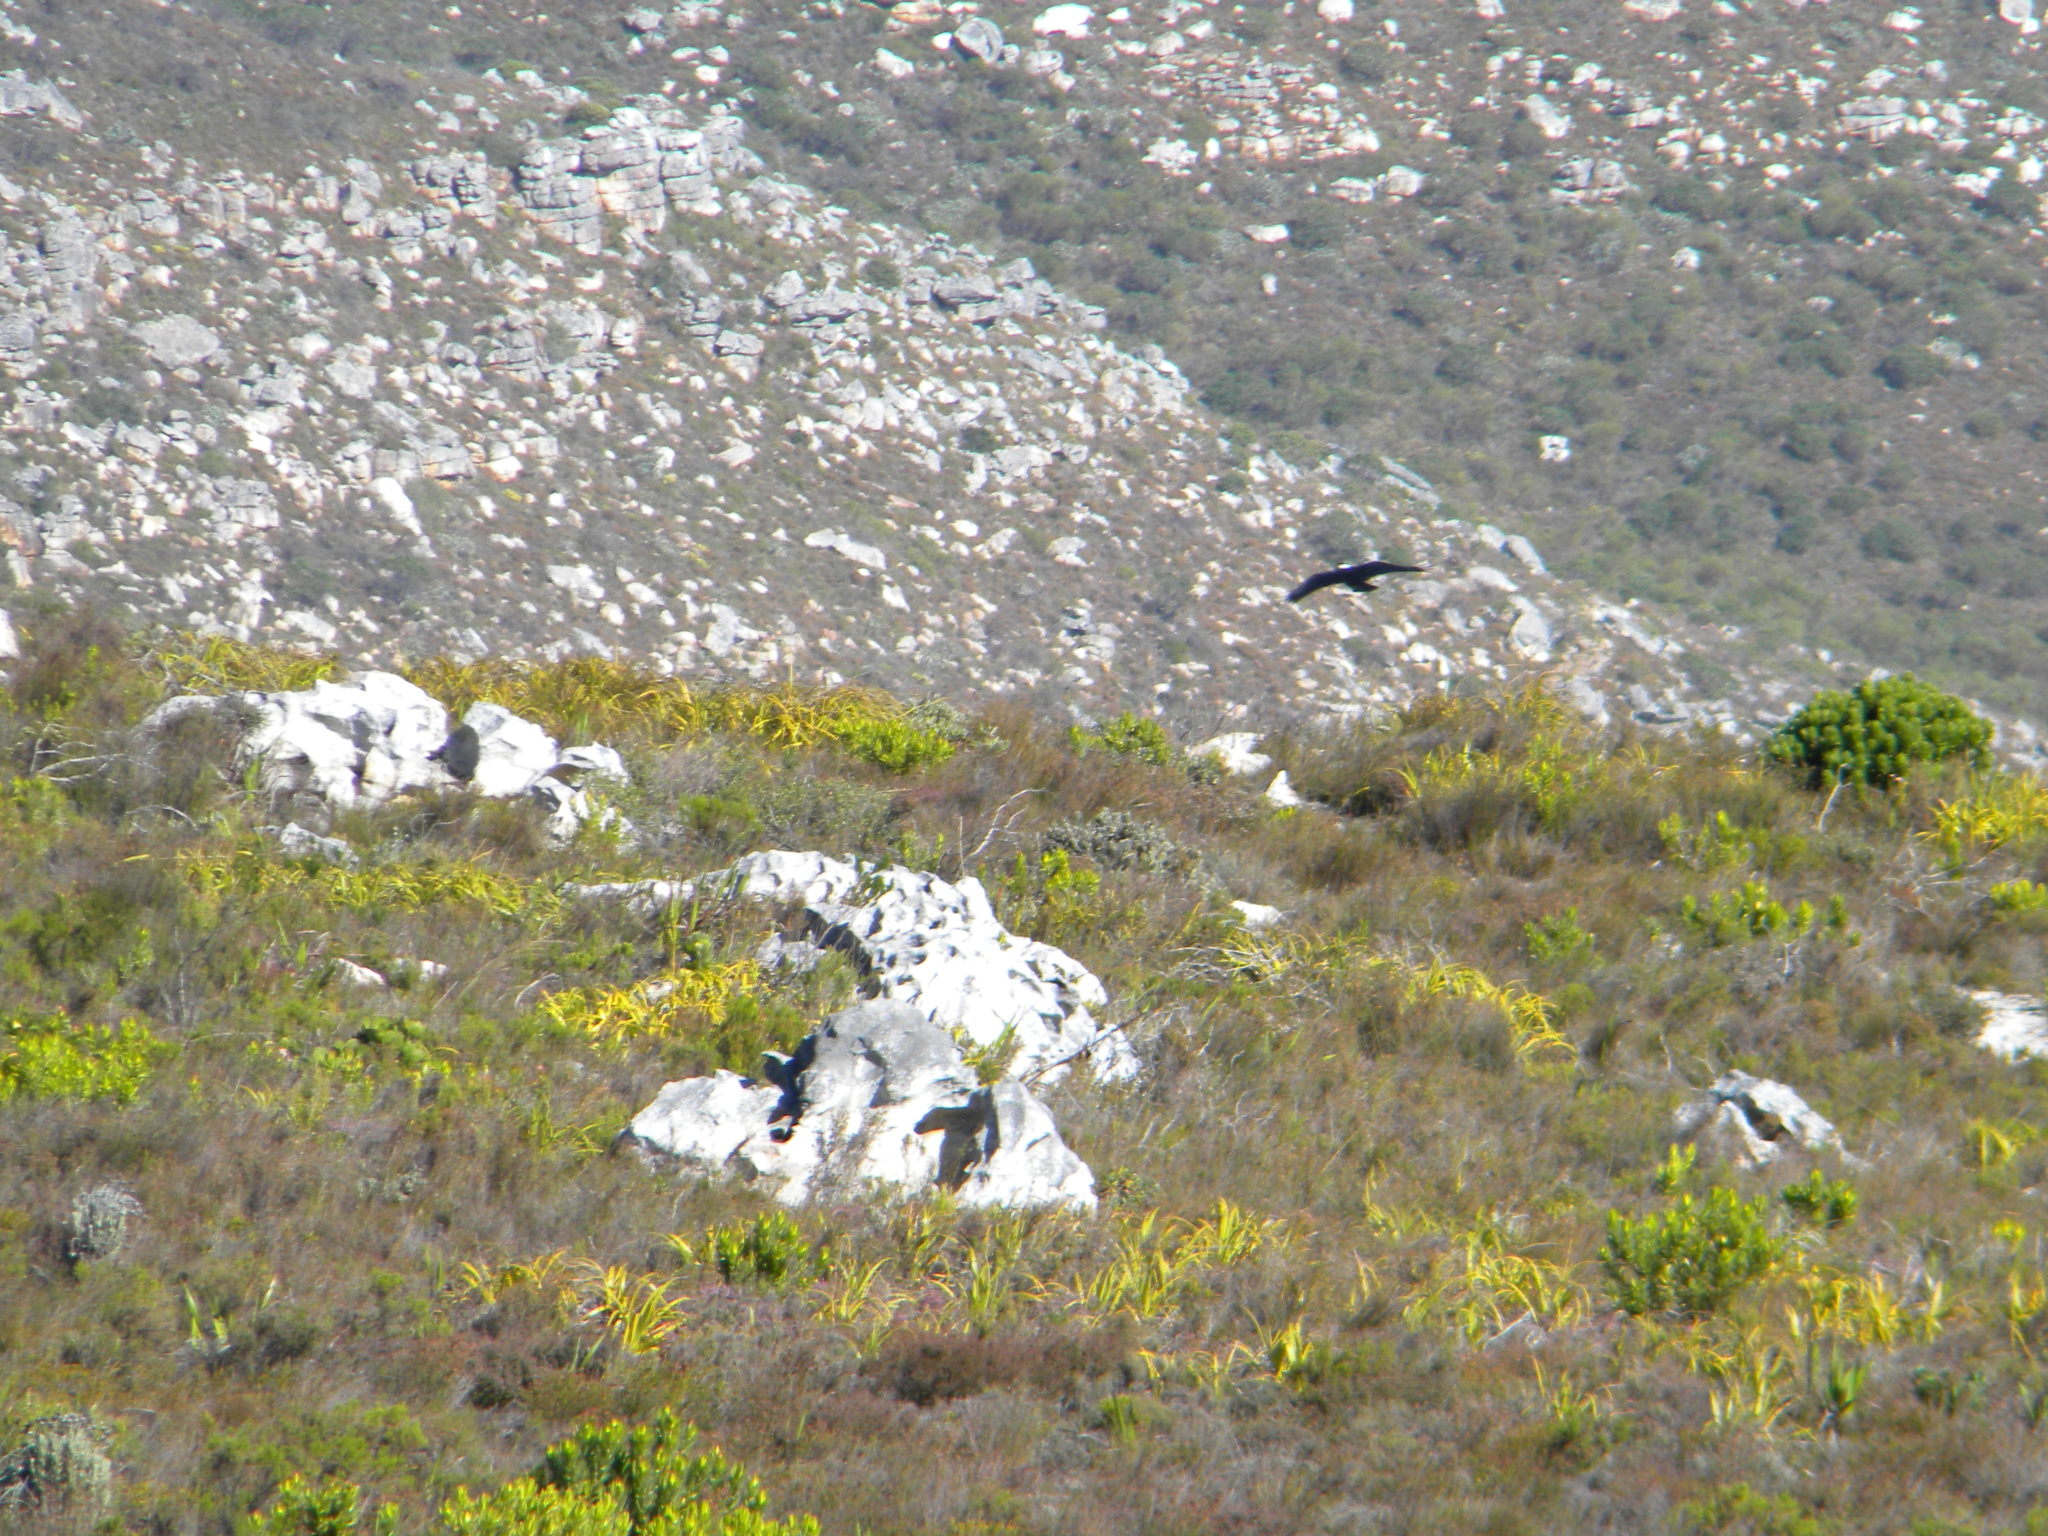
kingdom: Animalia
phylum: Chordata
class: Aves
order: Passeriformes
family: Corvidae
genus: Corvus
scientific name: Corvus albicollis
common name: White-necked raven
